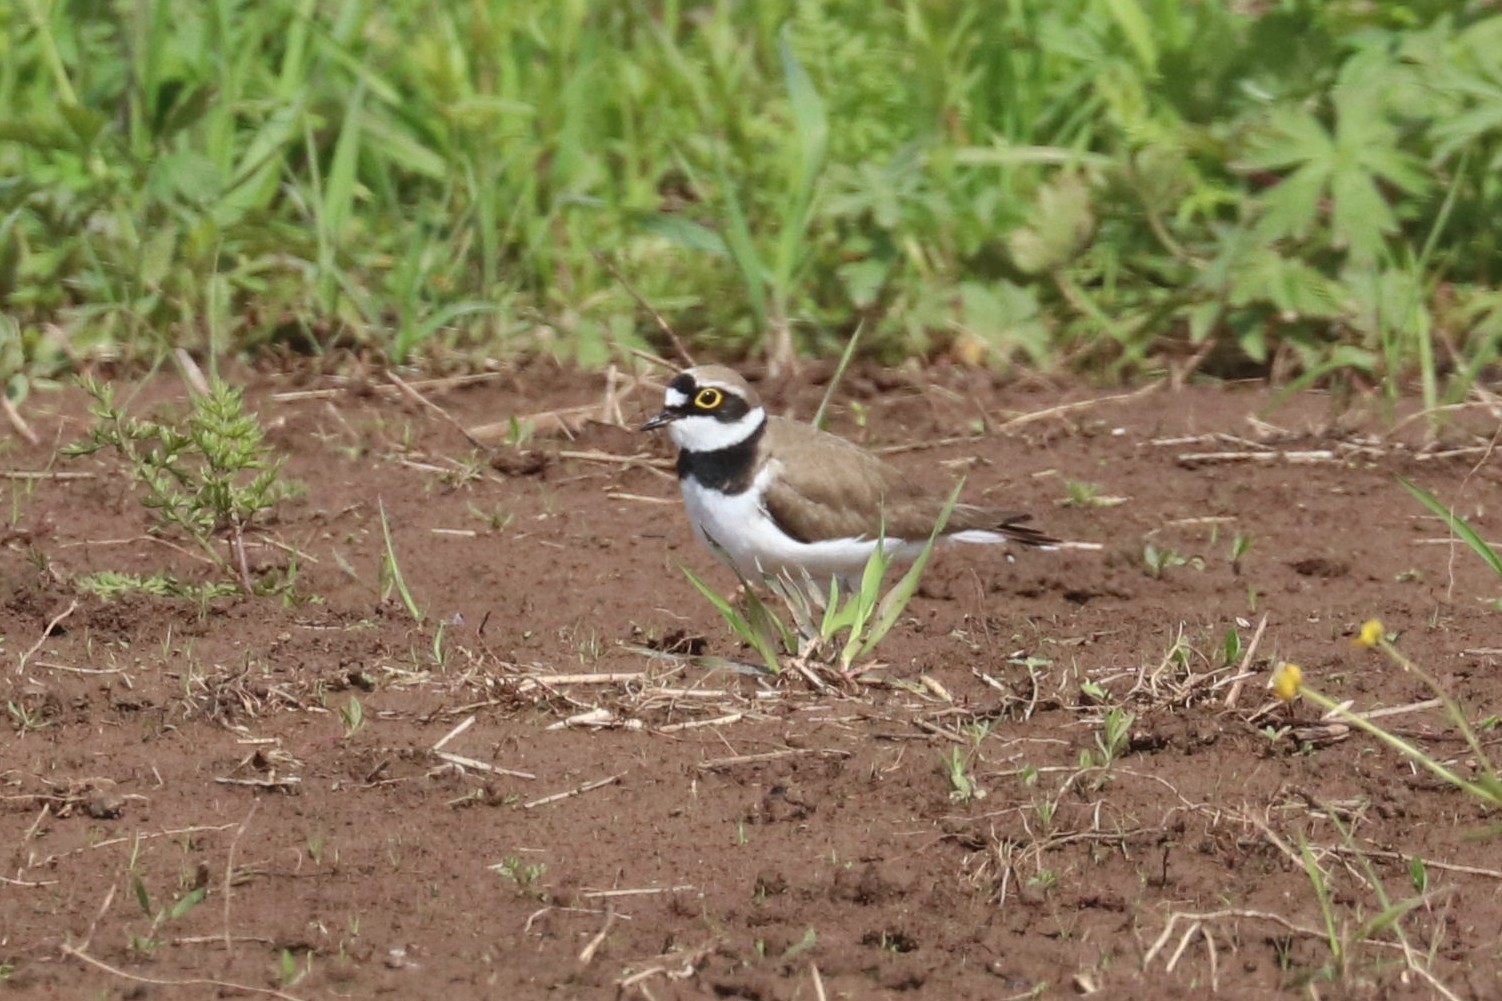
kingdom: Animalia
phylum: Chordata
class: Aves
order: Charadriiformes
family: Charadriidae
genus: Charadrius
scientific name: Charadrius dubius
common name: Little ringed plover
